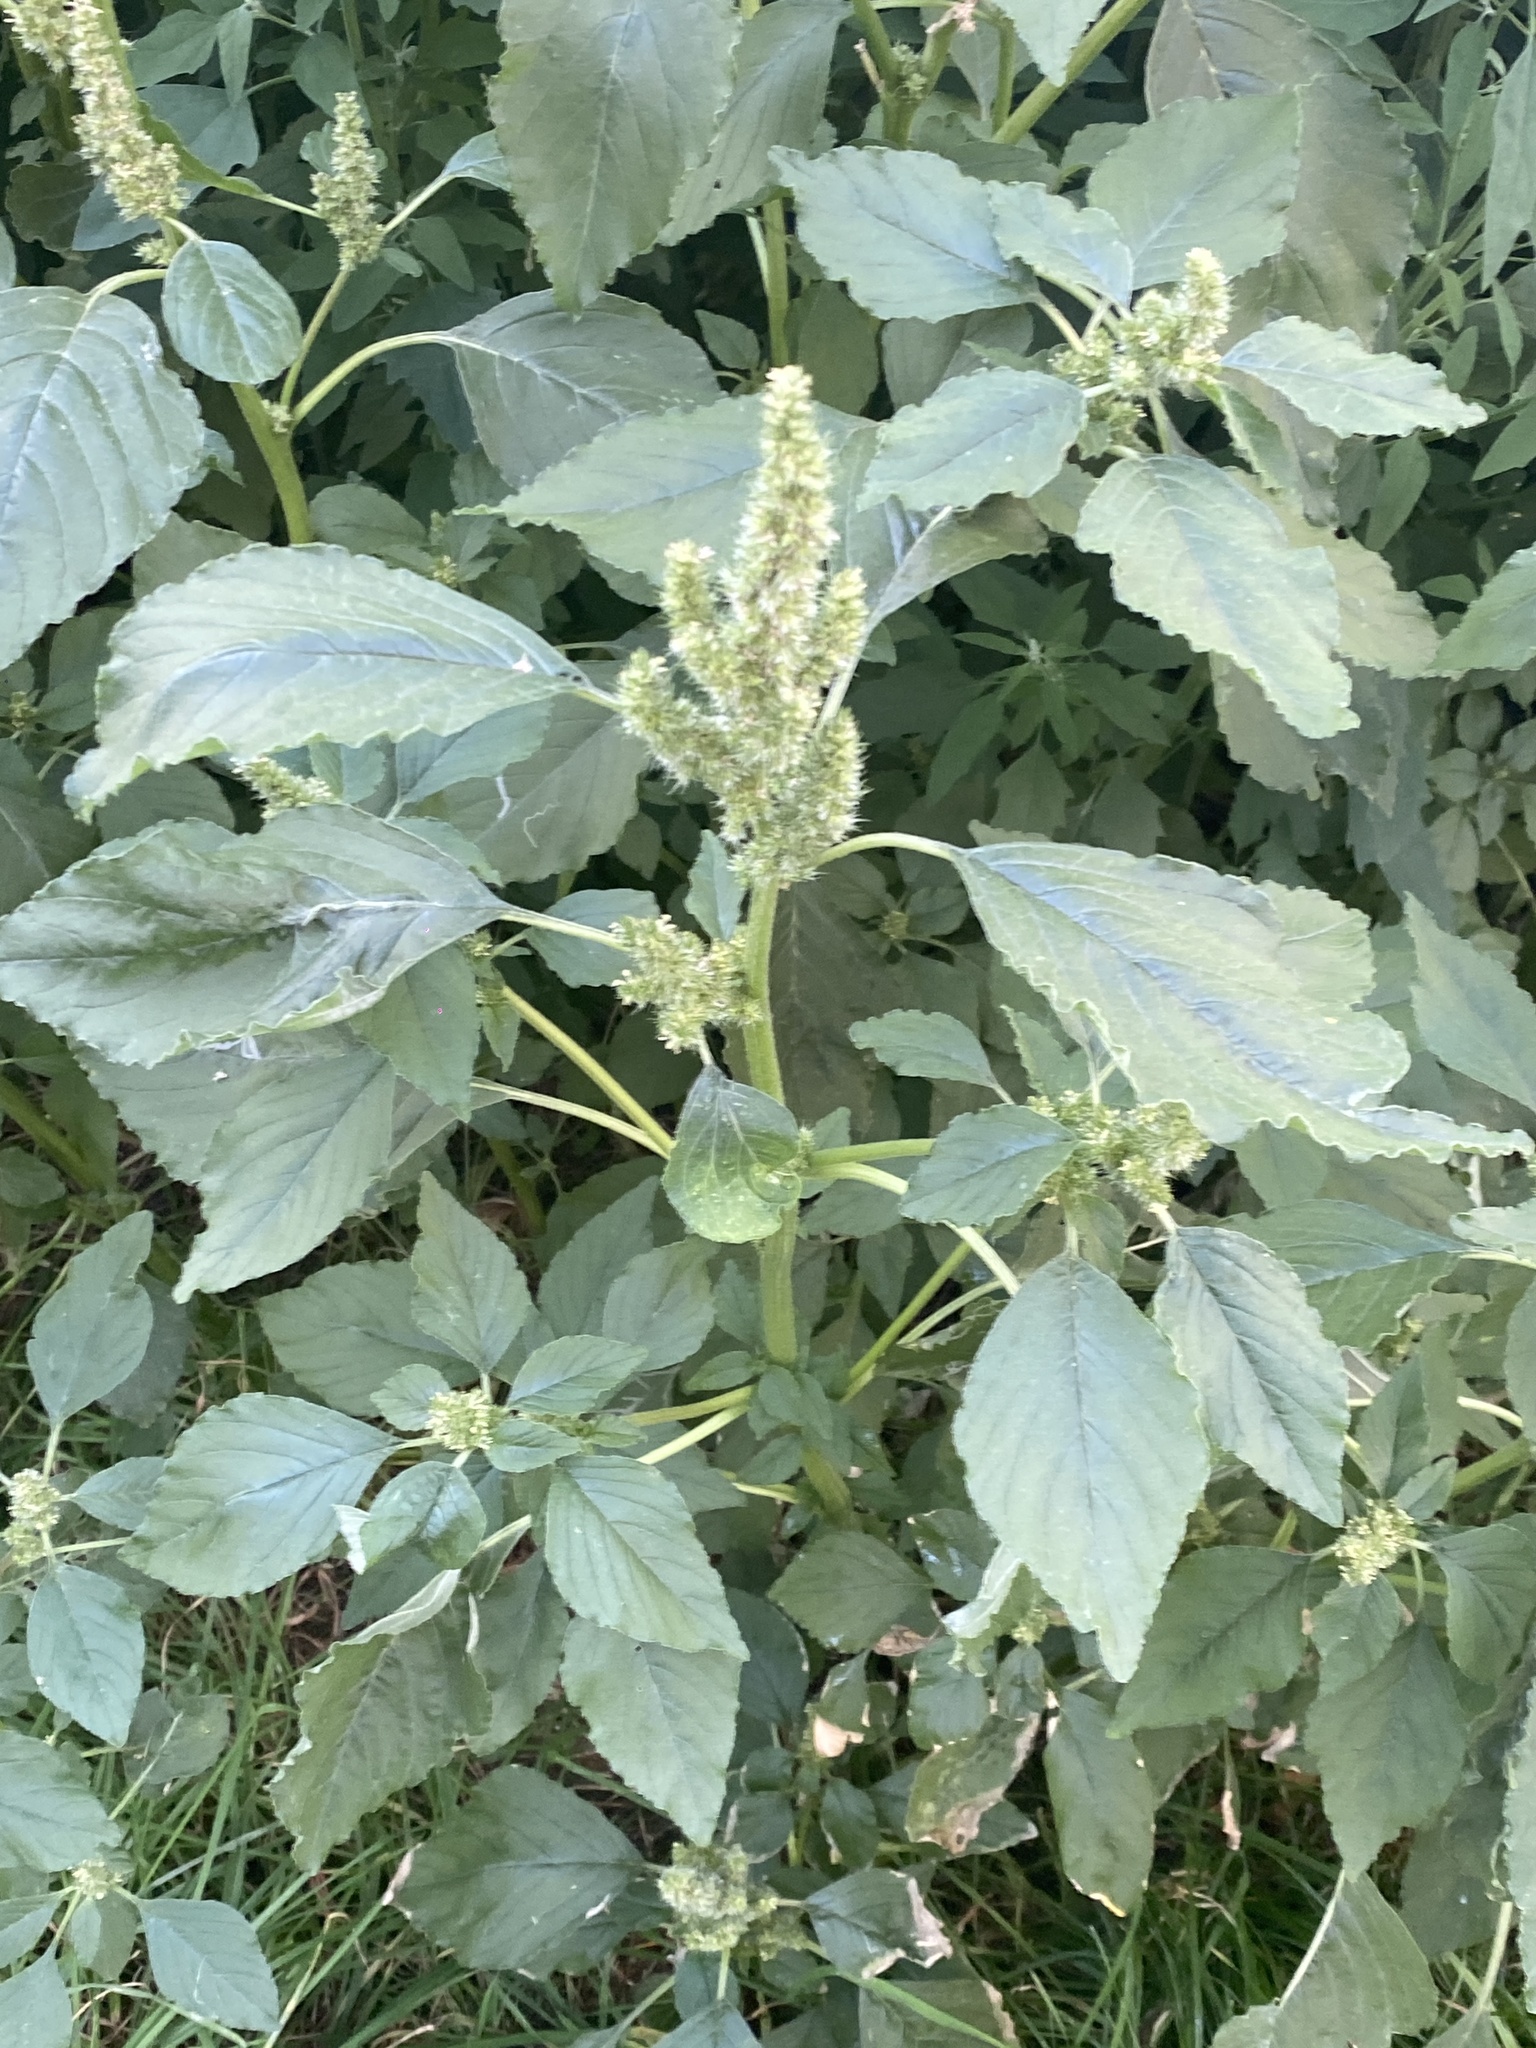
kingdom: Plantae
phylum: Tracheophyta
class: Magnoliopsida
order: Caryophyllales
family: Amaranthaceae
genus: Amaranthus
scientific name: Amaranthus retroflexus
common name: Redroot amaranth
